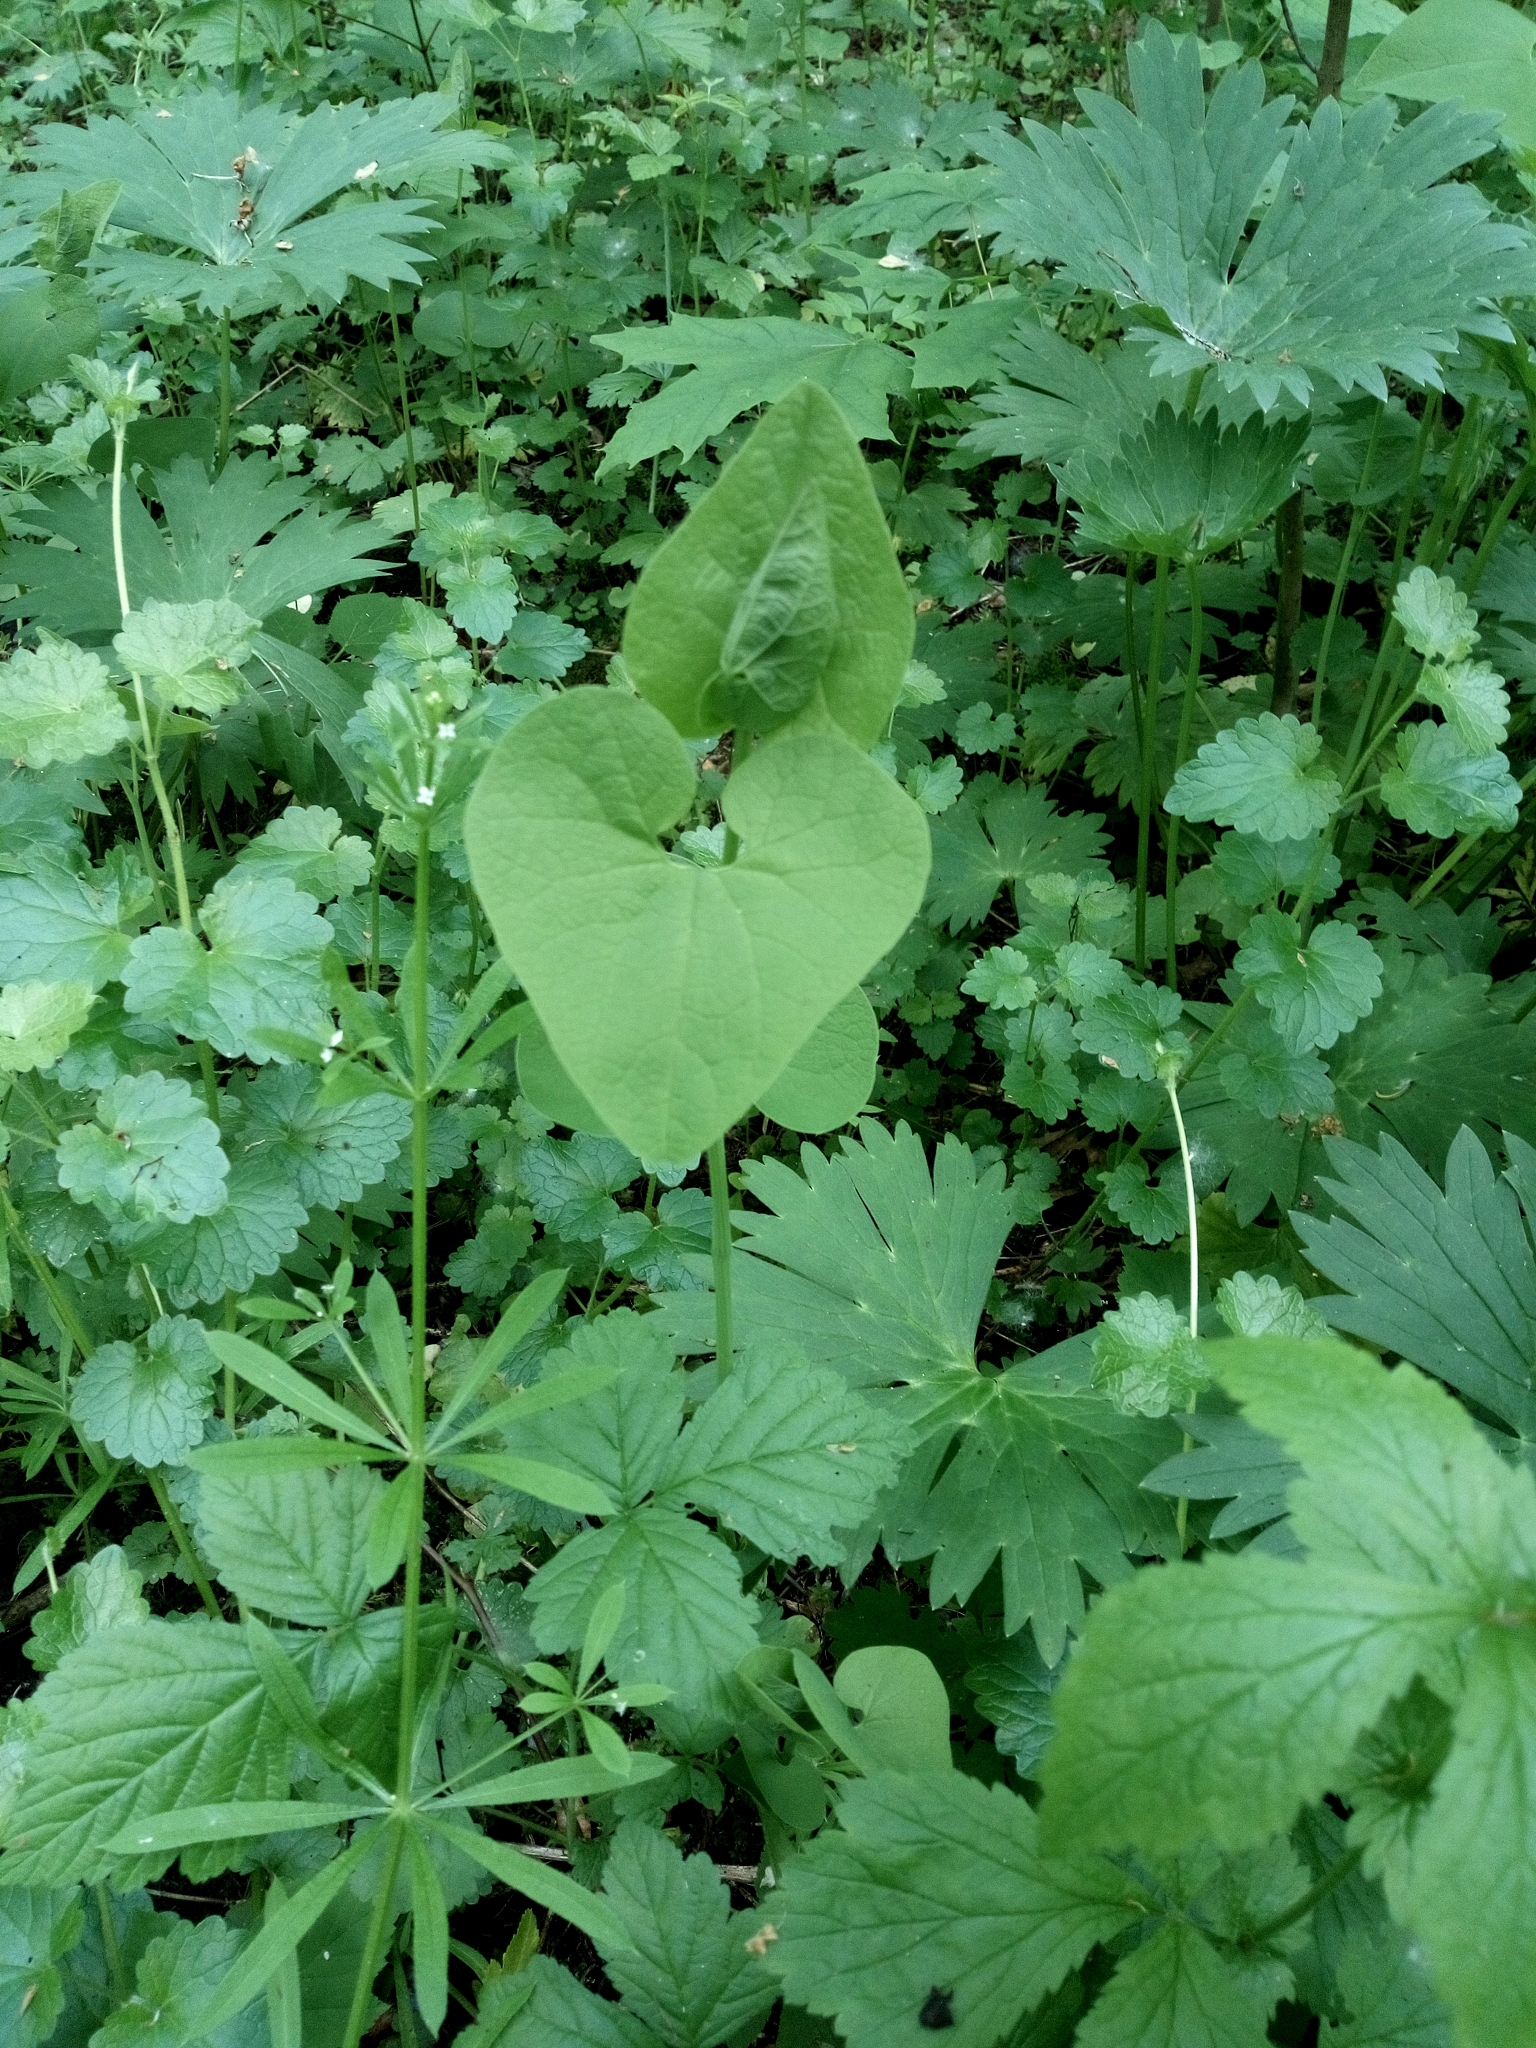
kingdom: Plantae
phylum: Tracheophyta
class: Magnoliopsida
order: Piperales
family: Aristolochiaceae
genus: Aristolochia
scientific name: Aristolochia clematitis
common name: Birthwort
